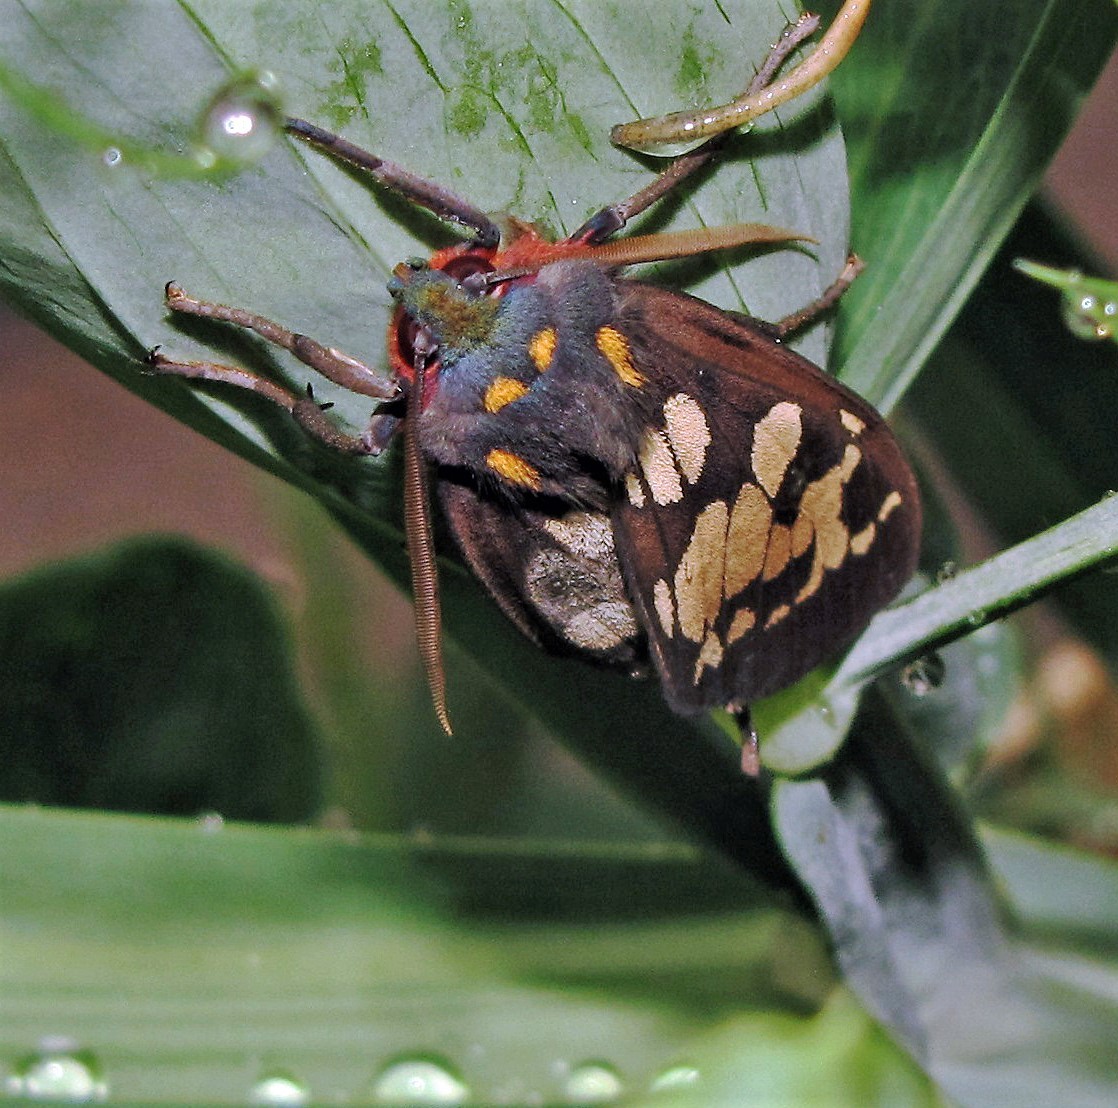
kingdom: Animalia
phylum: Arthropoda
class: Insecta
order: Lepidoptera
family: Erebidae
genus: Amastus
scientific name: Amastus formosana
